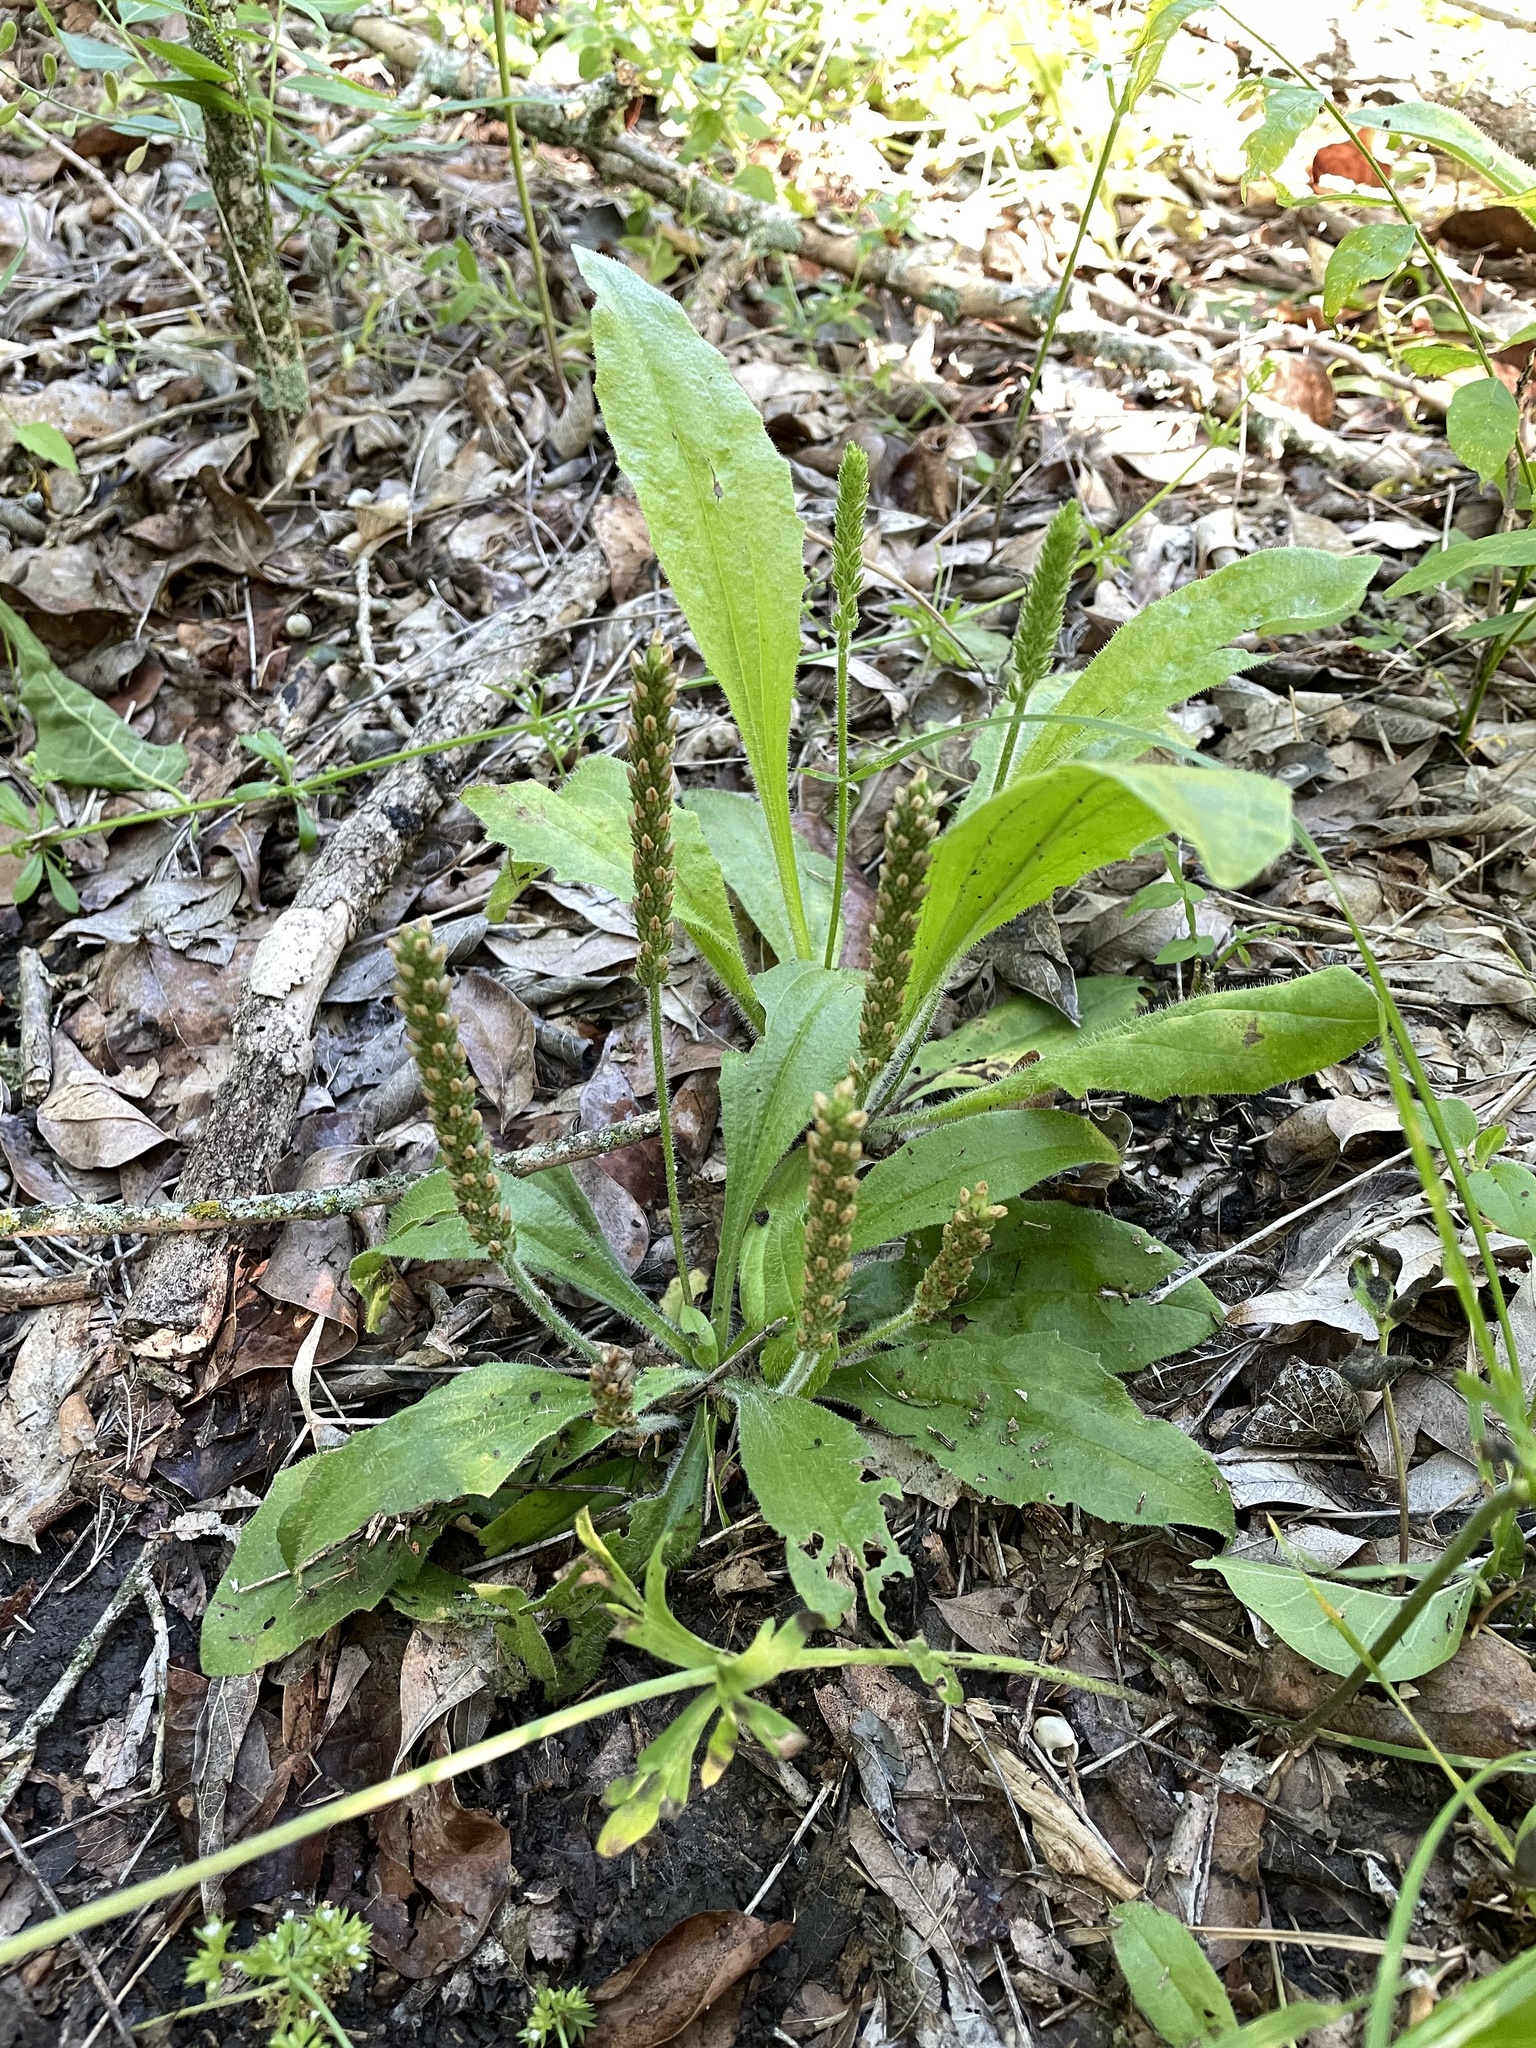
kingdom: Plantae
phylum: Tracheophyta
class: Magnoliopsida
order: Lamiales
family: Plantaginaceae
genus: Plantago
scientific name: Plantago rhodosperma
